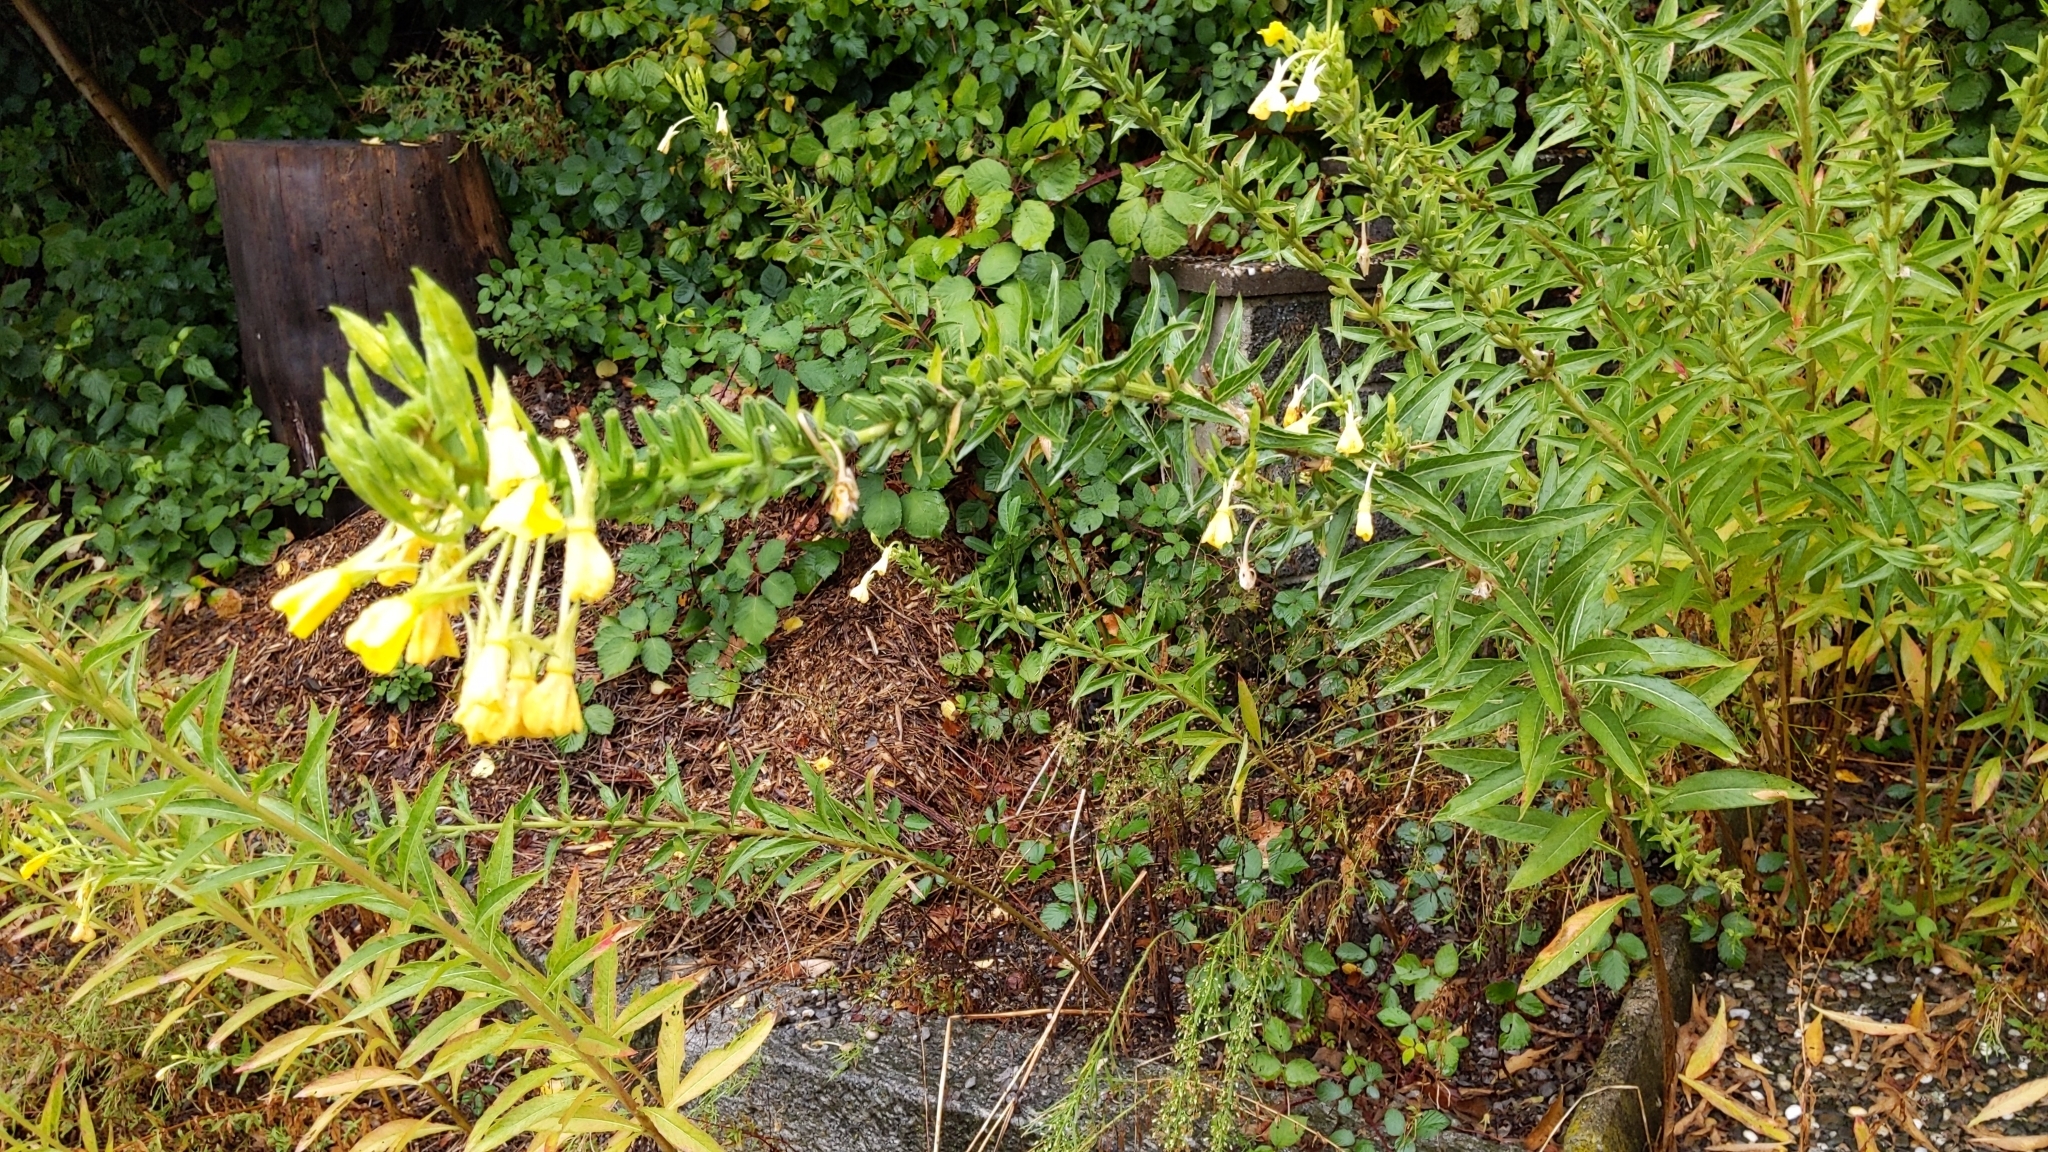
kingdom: Plantae
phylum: Tracheophyta
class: Magnoliopsida
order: Myrtales
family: Onagraceae
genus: Oenothera
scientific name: Oenothera biennis
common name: Common evening-primrose
